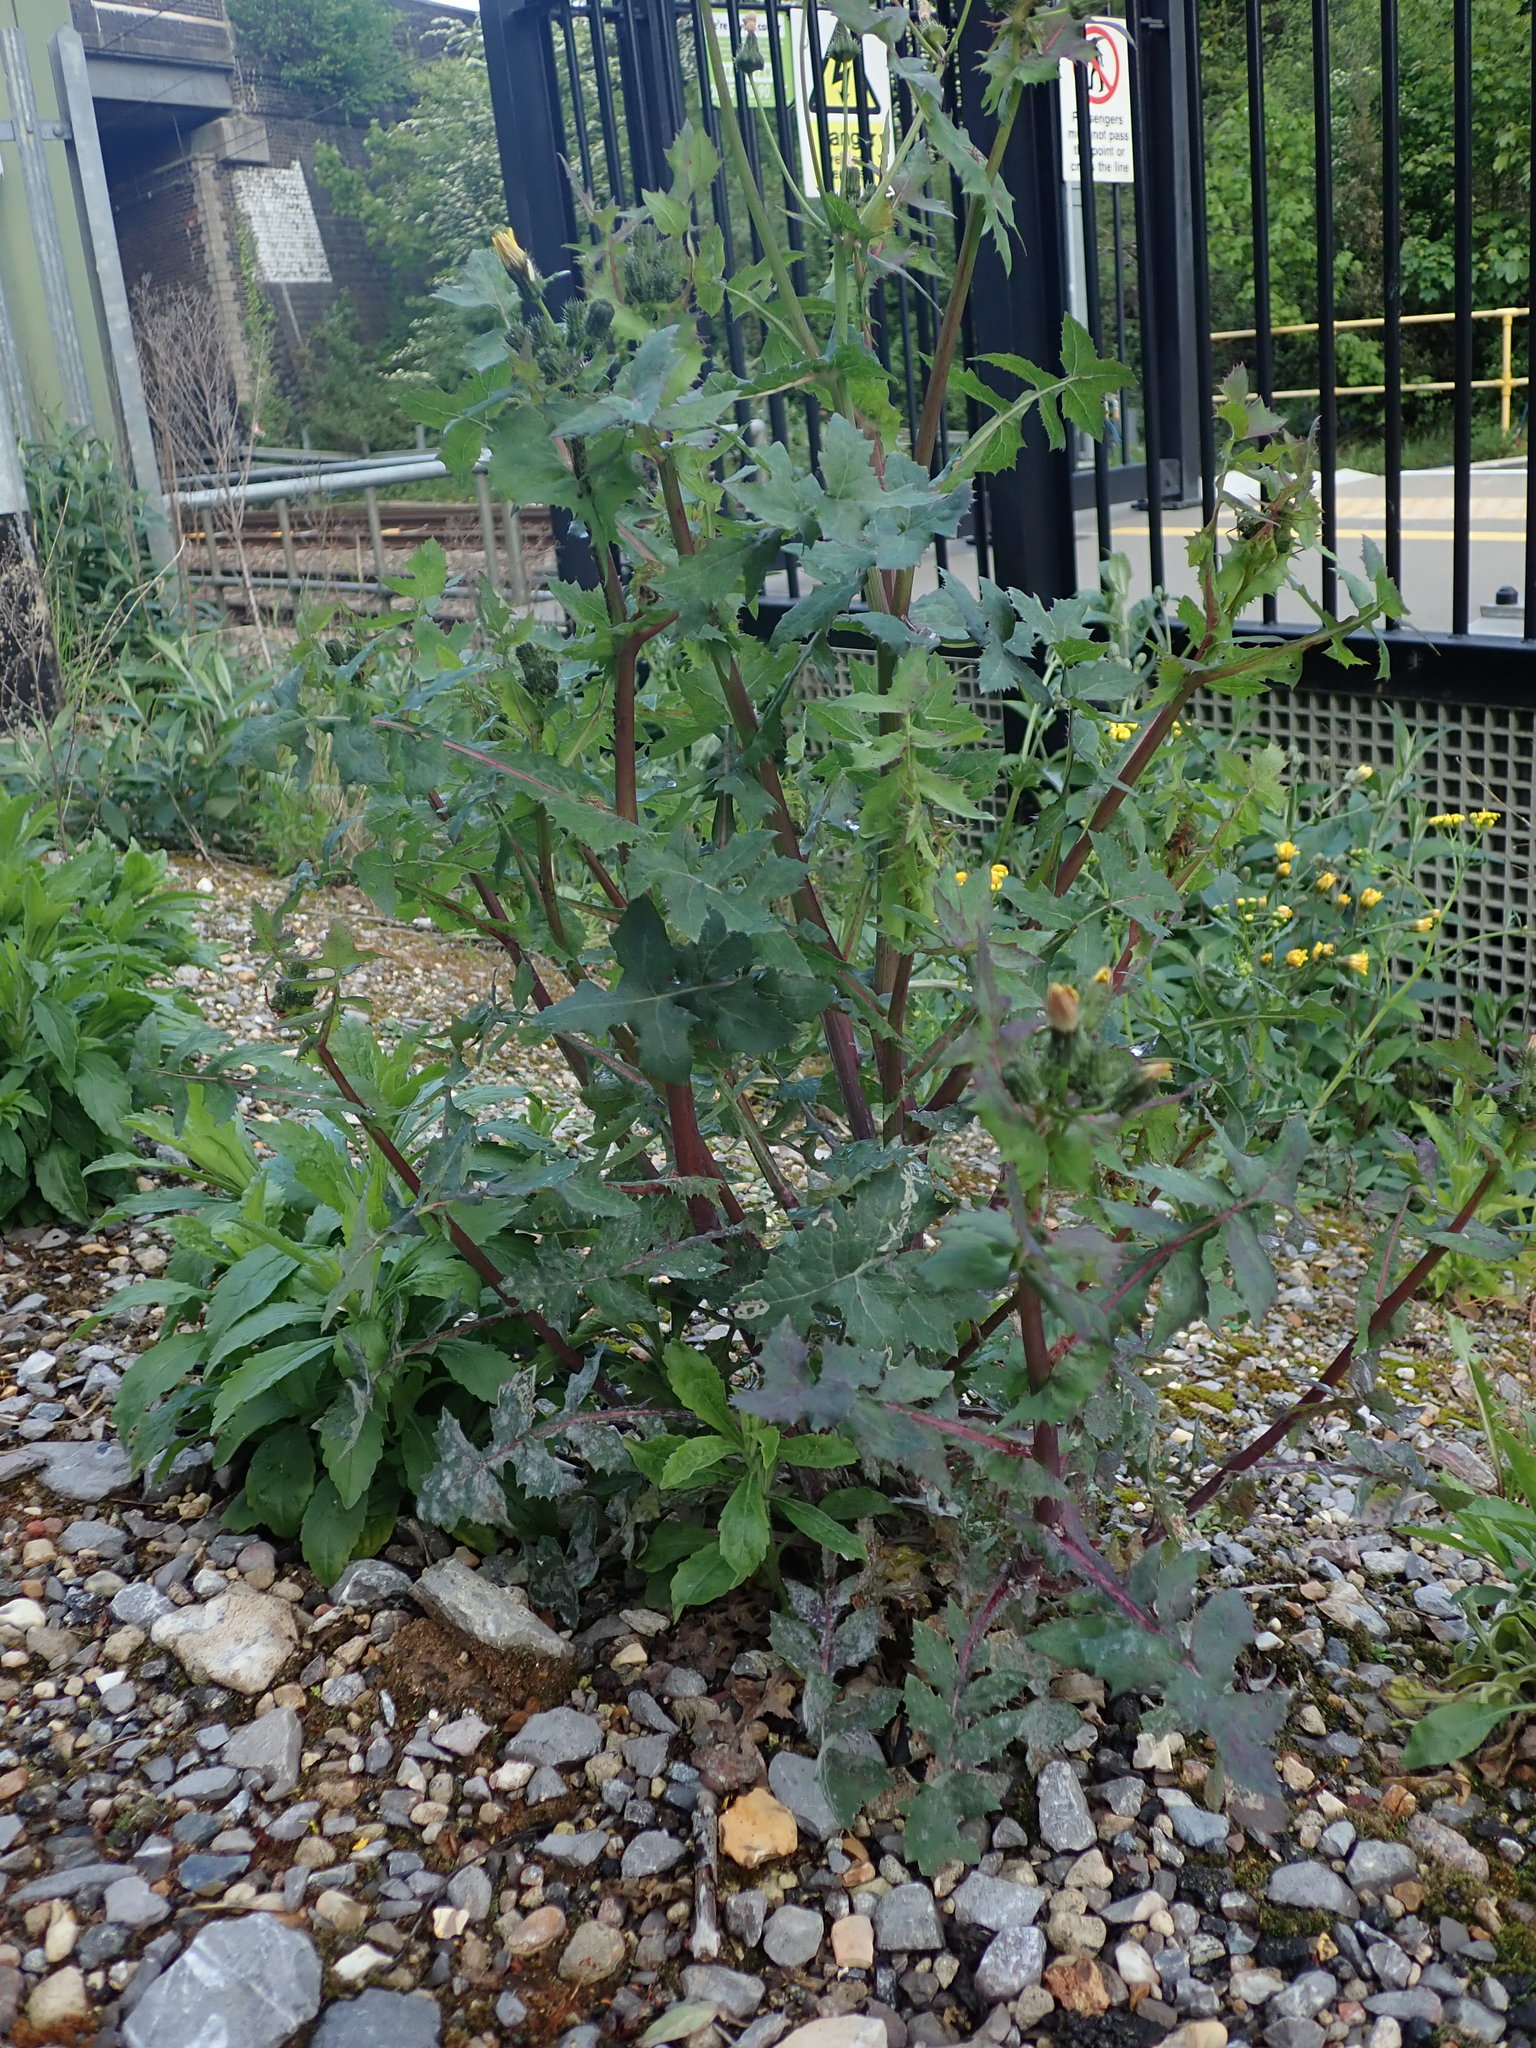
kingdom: Plantae
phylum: Tracheophyta
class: Magnoliopsida
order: Asterales
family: Asteraceae
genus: Sonchus
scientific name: Sonchus oleraceus
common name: Common sowthistle
